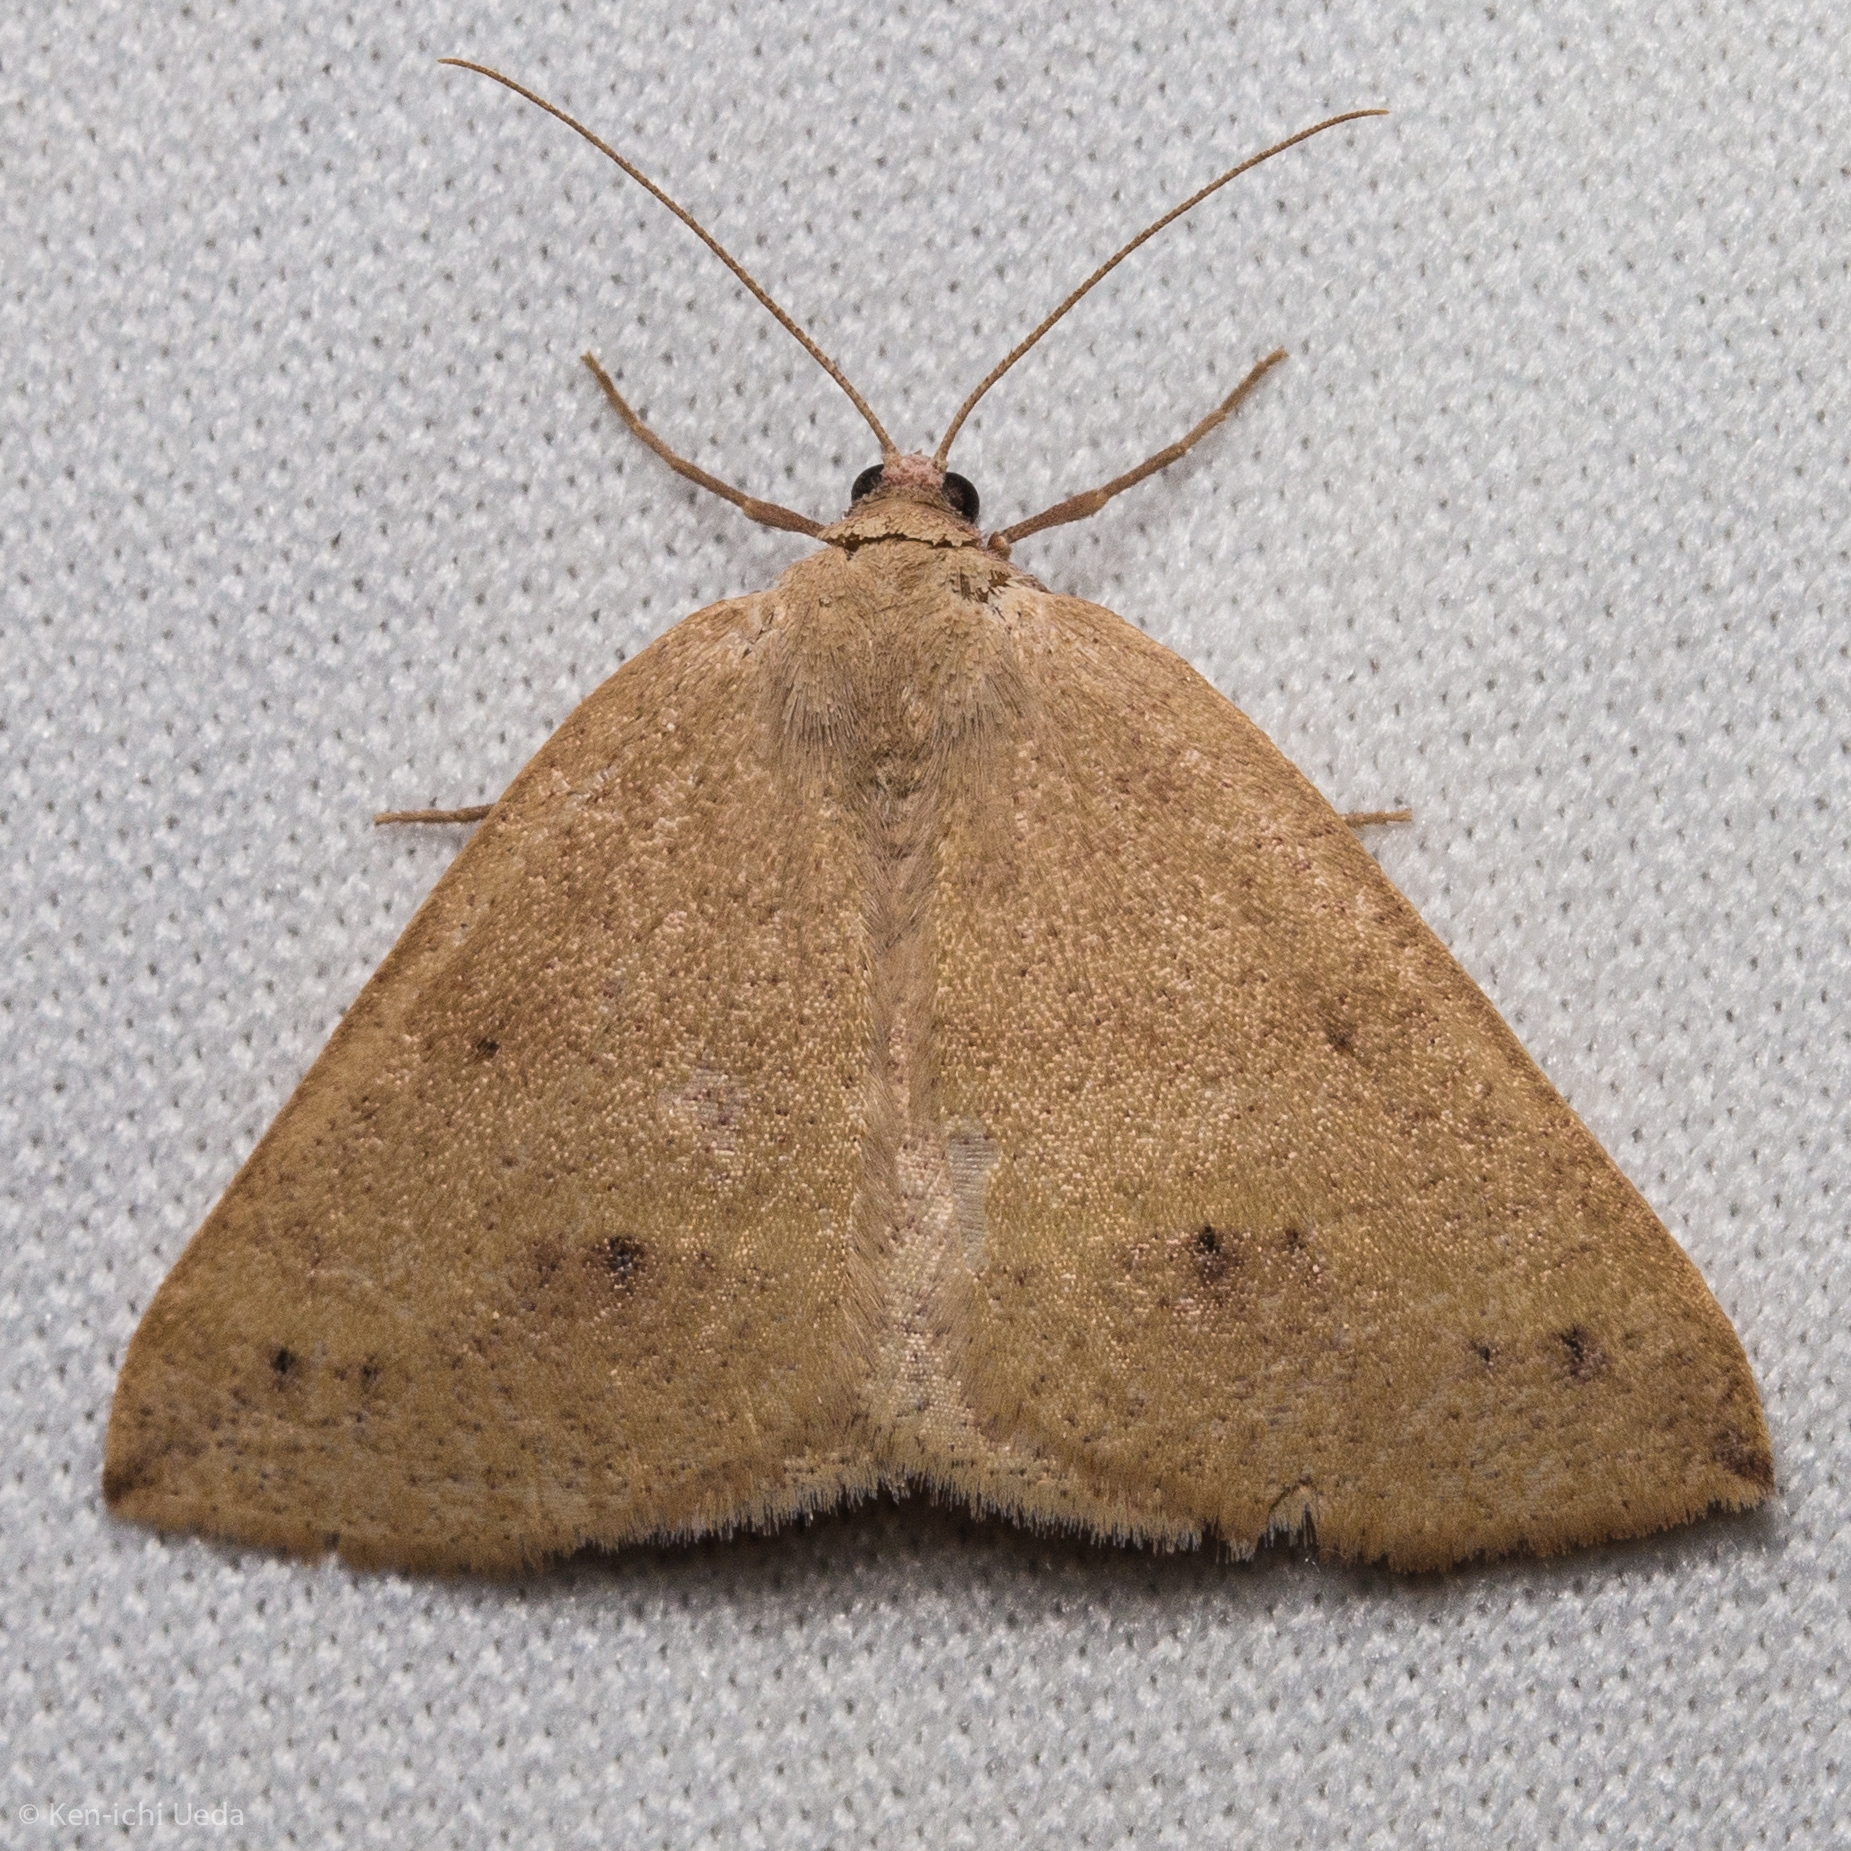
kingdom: Animalia
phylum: Arthropoda
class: Insecta
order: Lepidoptera
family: Geometridae
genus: Drepanulatrix
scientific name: Drepanulatrix unicalcararia
